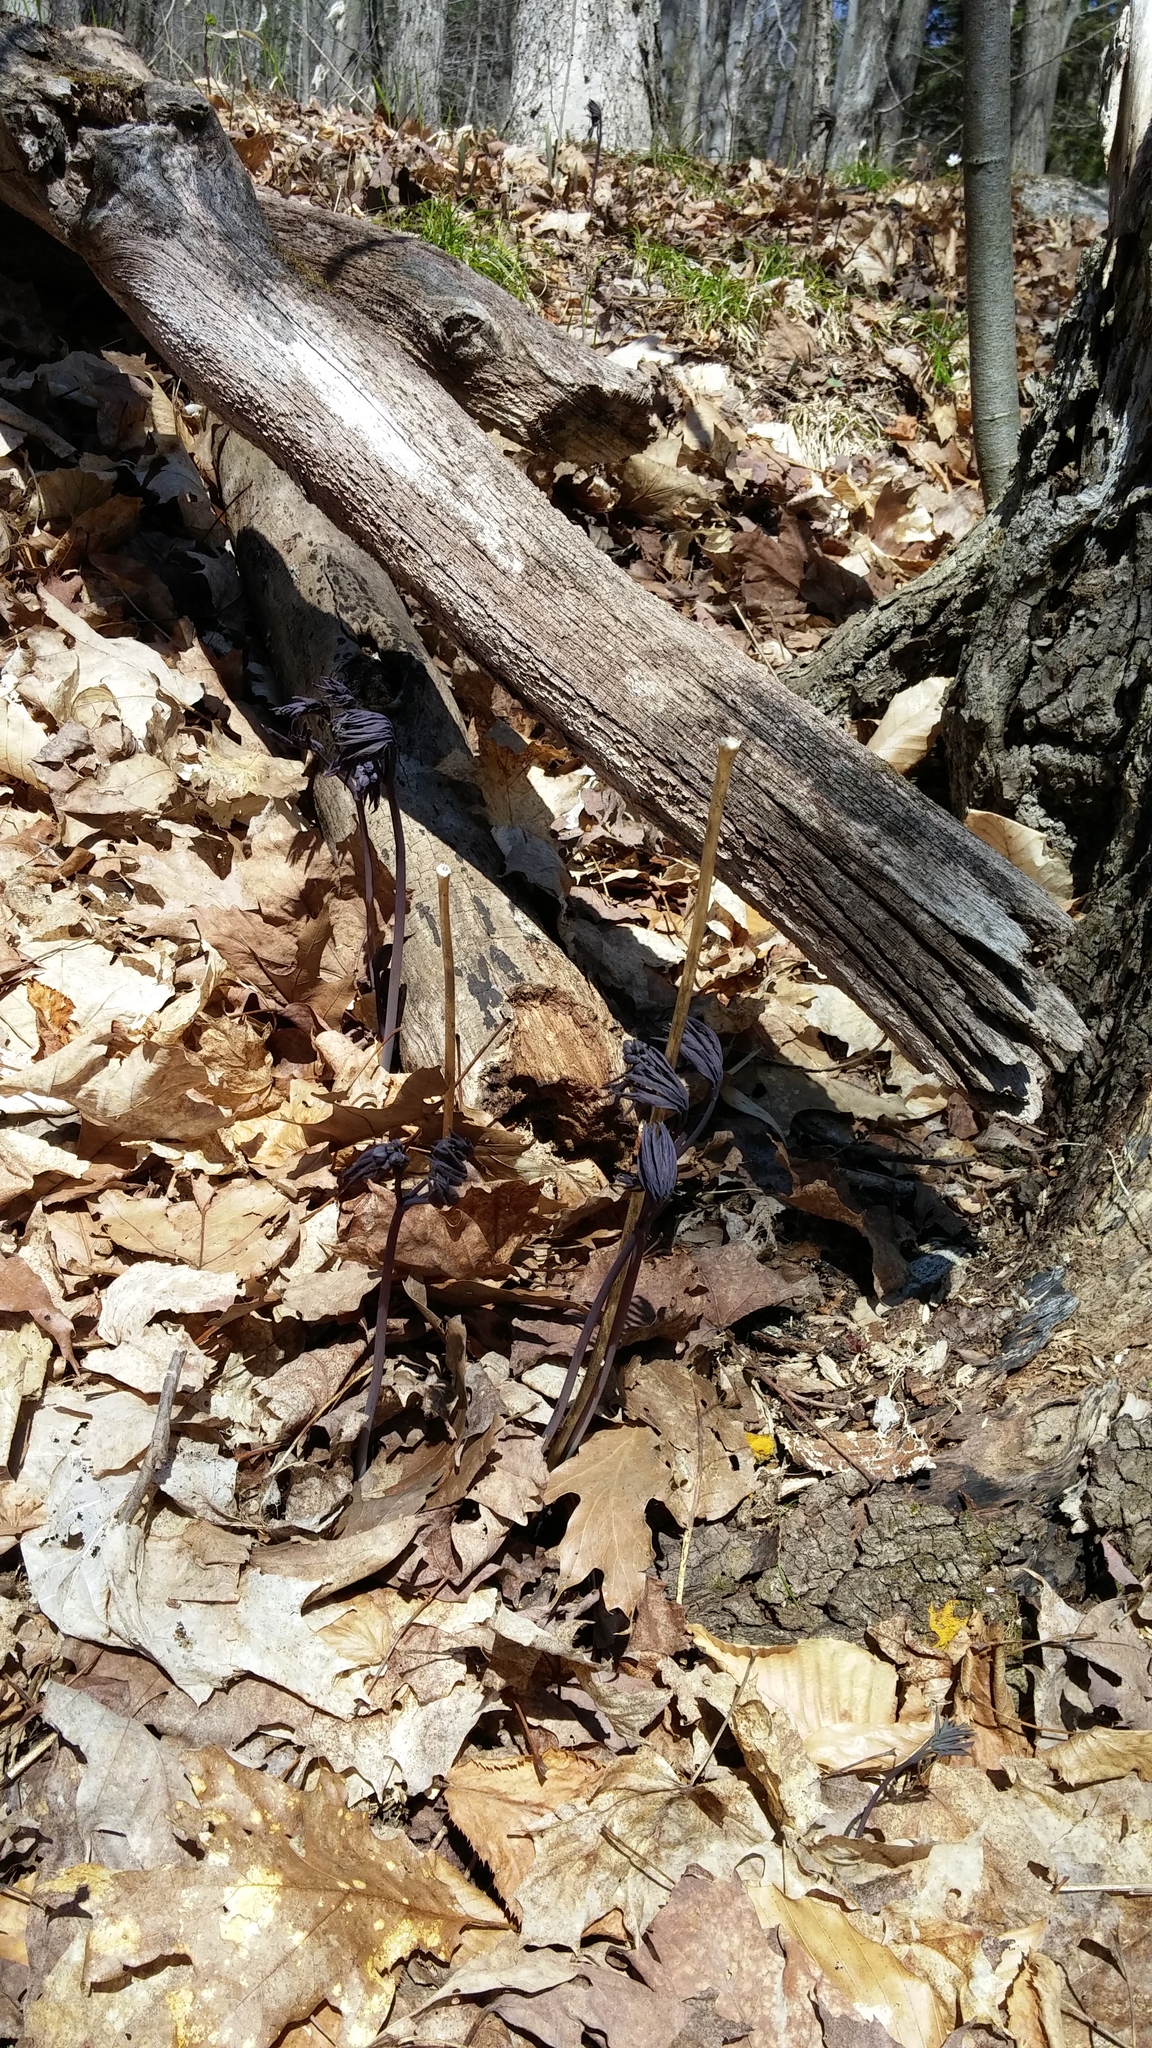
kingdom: Plantae
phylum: Tracheophyta
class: Magnoliopsida
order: Ranunculales
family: Berberidaceae
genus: Caulophyllum
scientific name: Caulophyllum giganteum
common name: Blue cohosh
